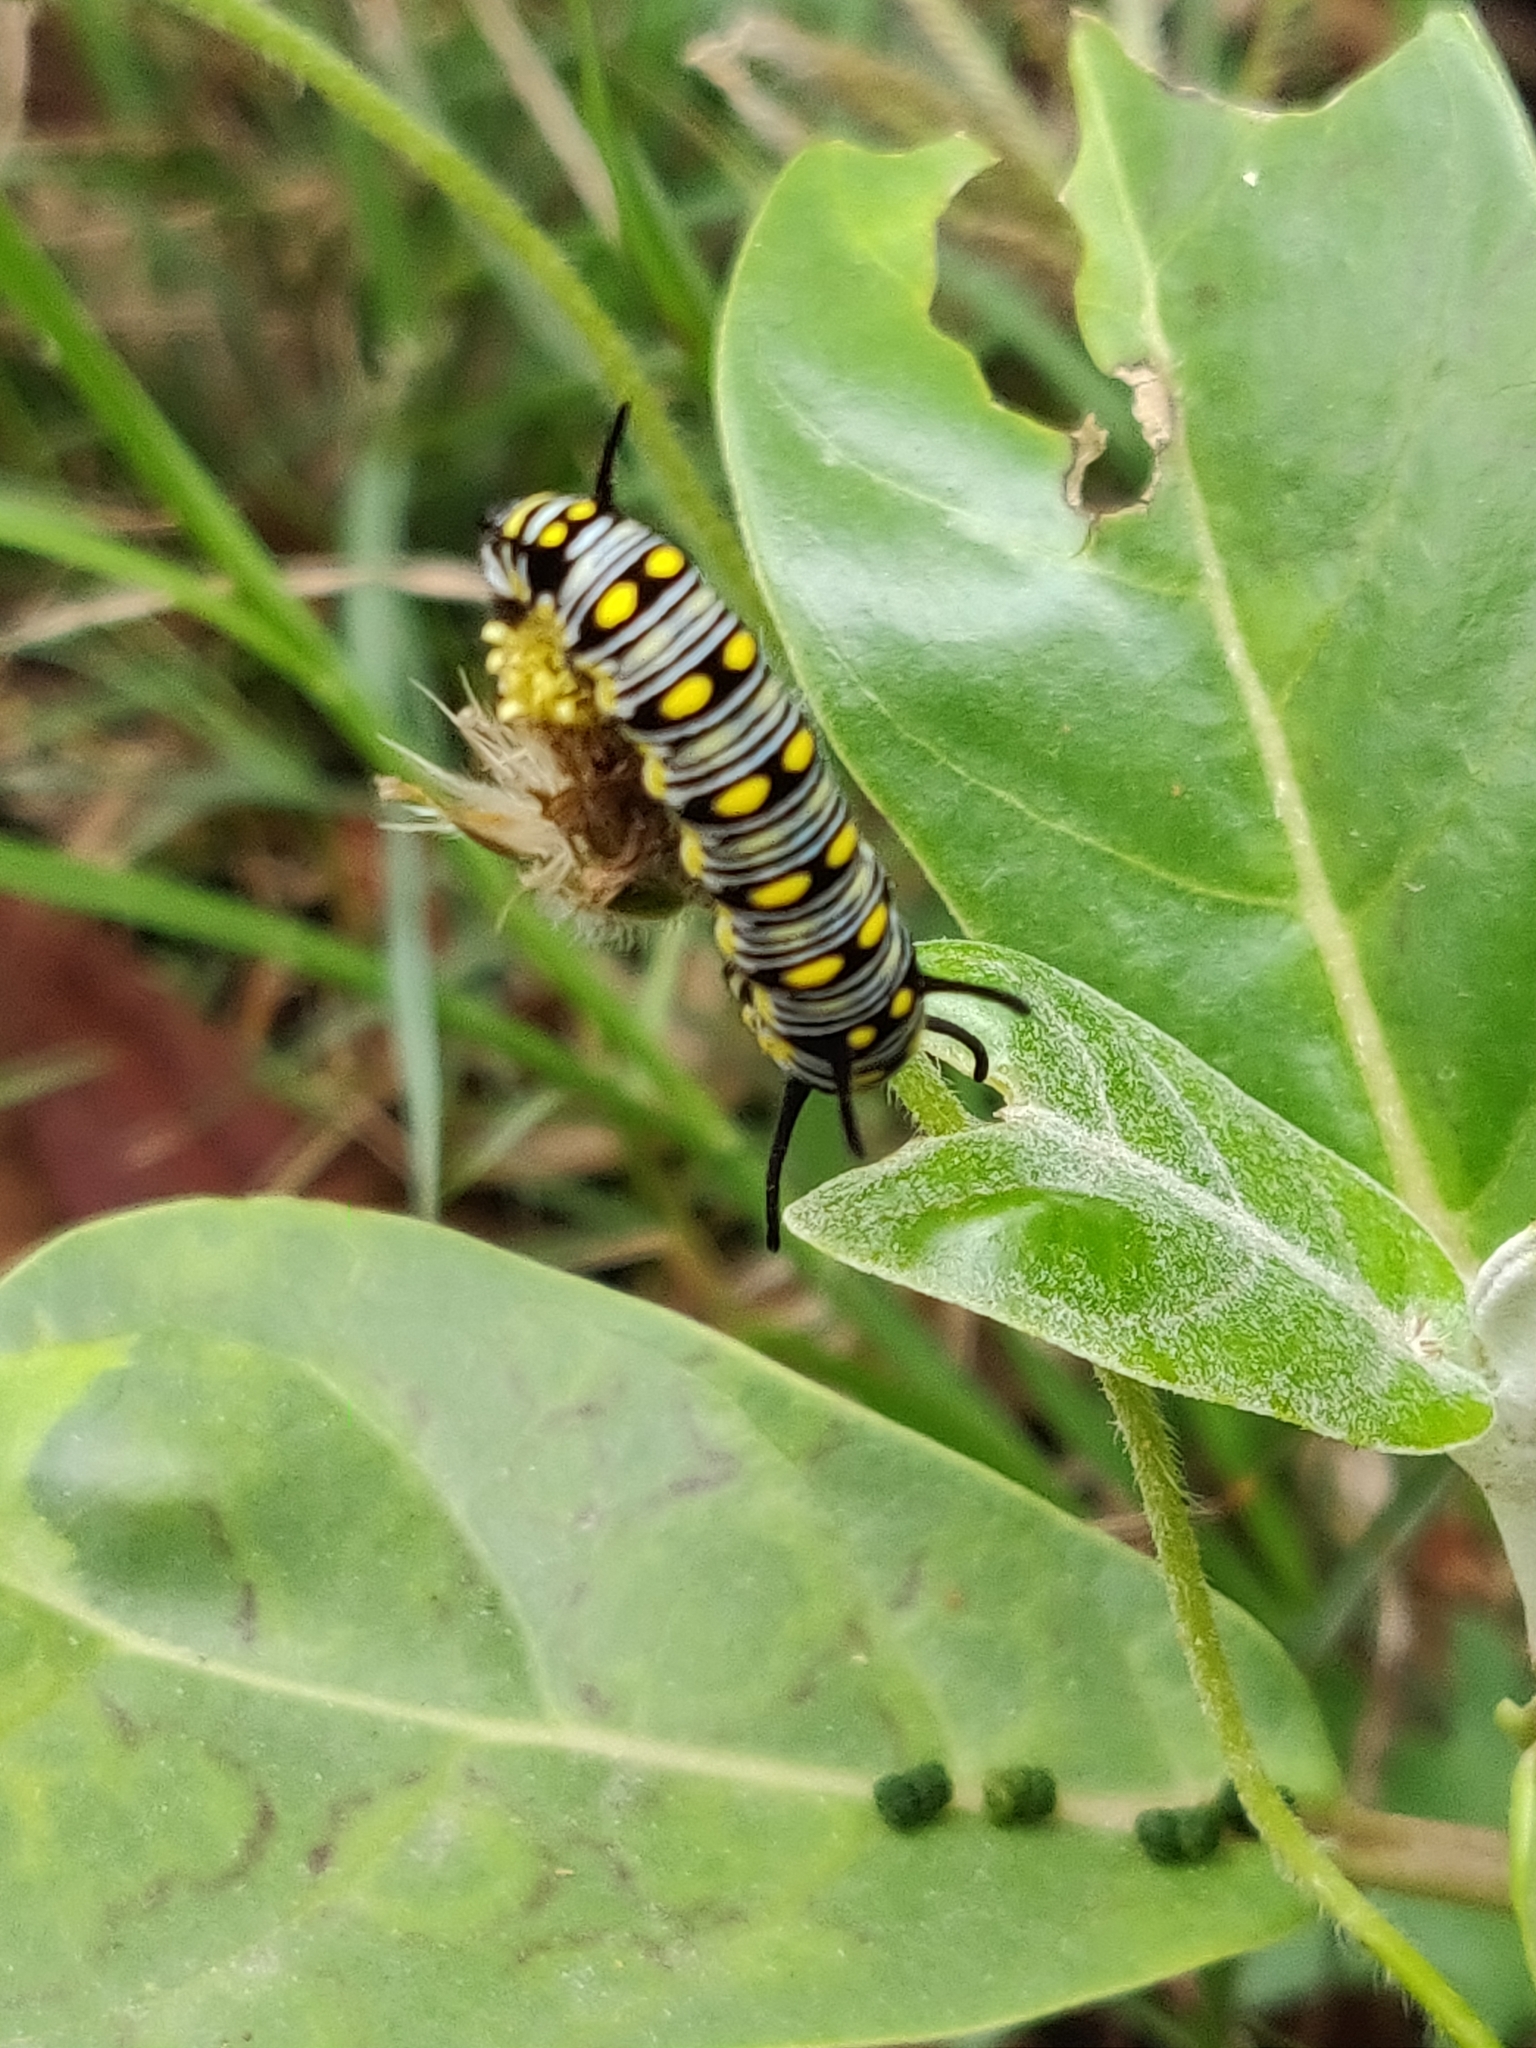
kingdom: Animalia
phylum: Arthropoda
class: Insecta
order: Lepidoptera
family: Nymphalidae
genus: Danaus
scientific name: Danaus chrysippus
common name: Plain tiger
